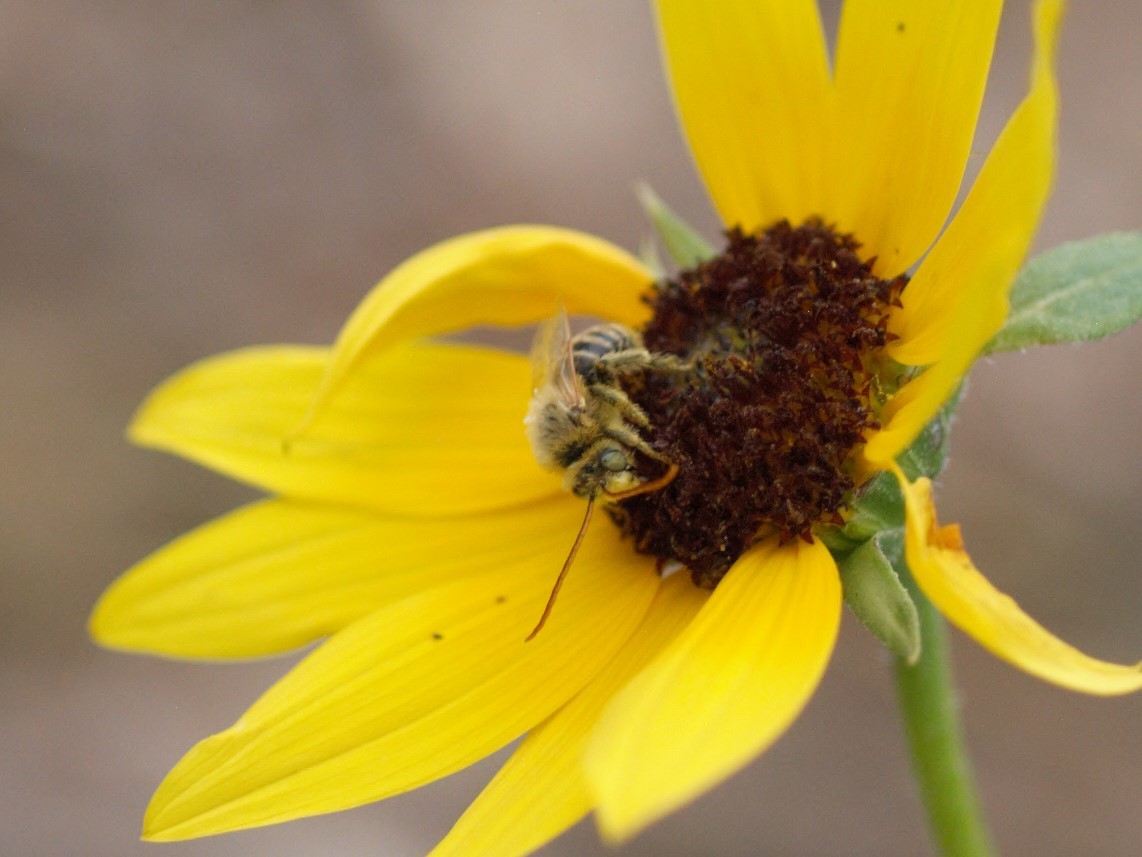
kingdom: Animalia
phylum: Arthropoda
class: Insecta
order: Hymenoptera
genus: Eumelissodes
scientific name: Eumelissodes
